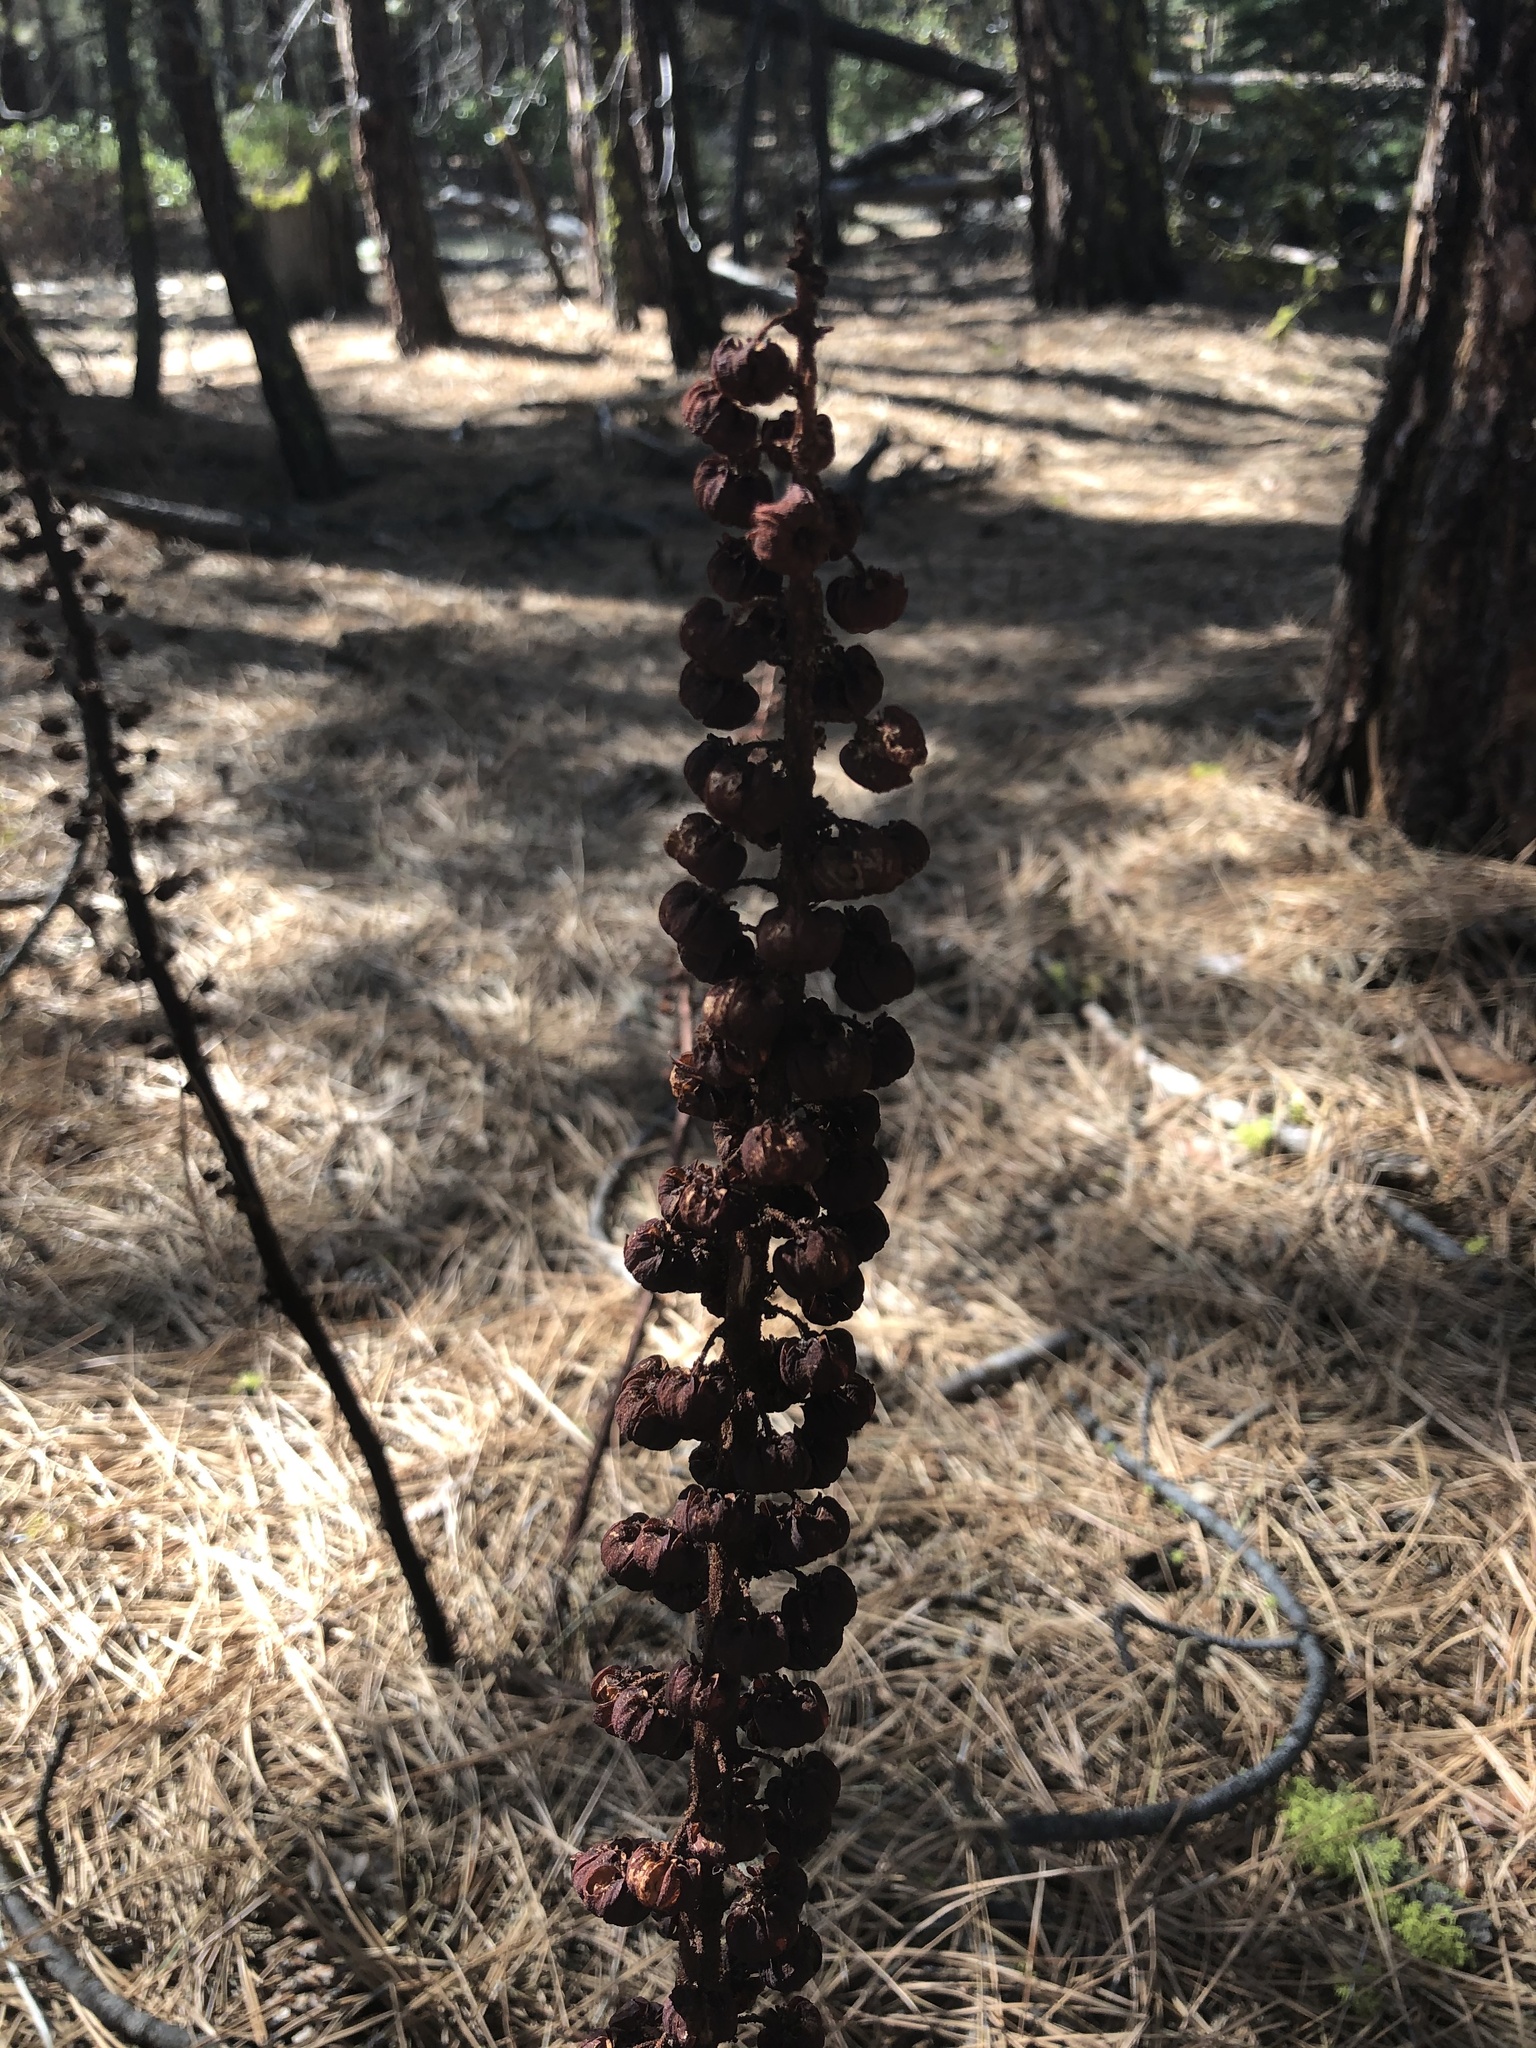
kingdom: Plantae
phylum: Tracheophyta
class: Magnoliopsida
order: Ericales
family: Ericaceae
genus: Pterospora
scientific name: Pterospora andromedea
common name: Giant bird's-nest
